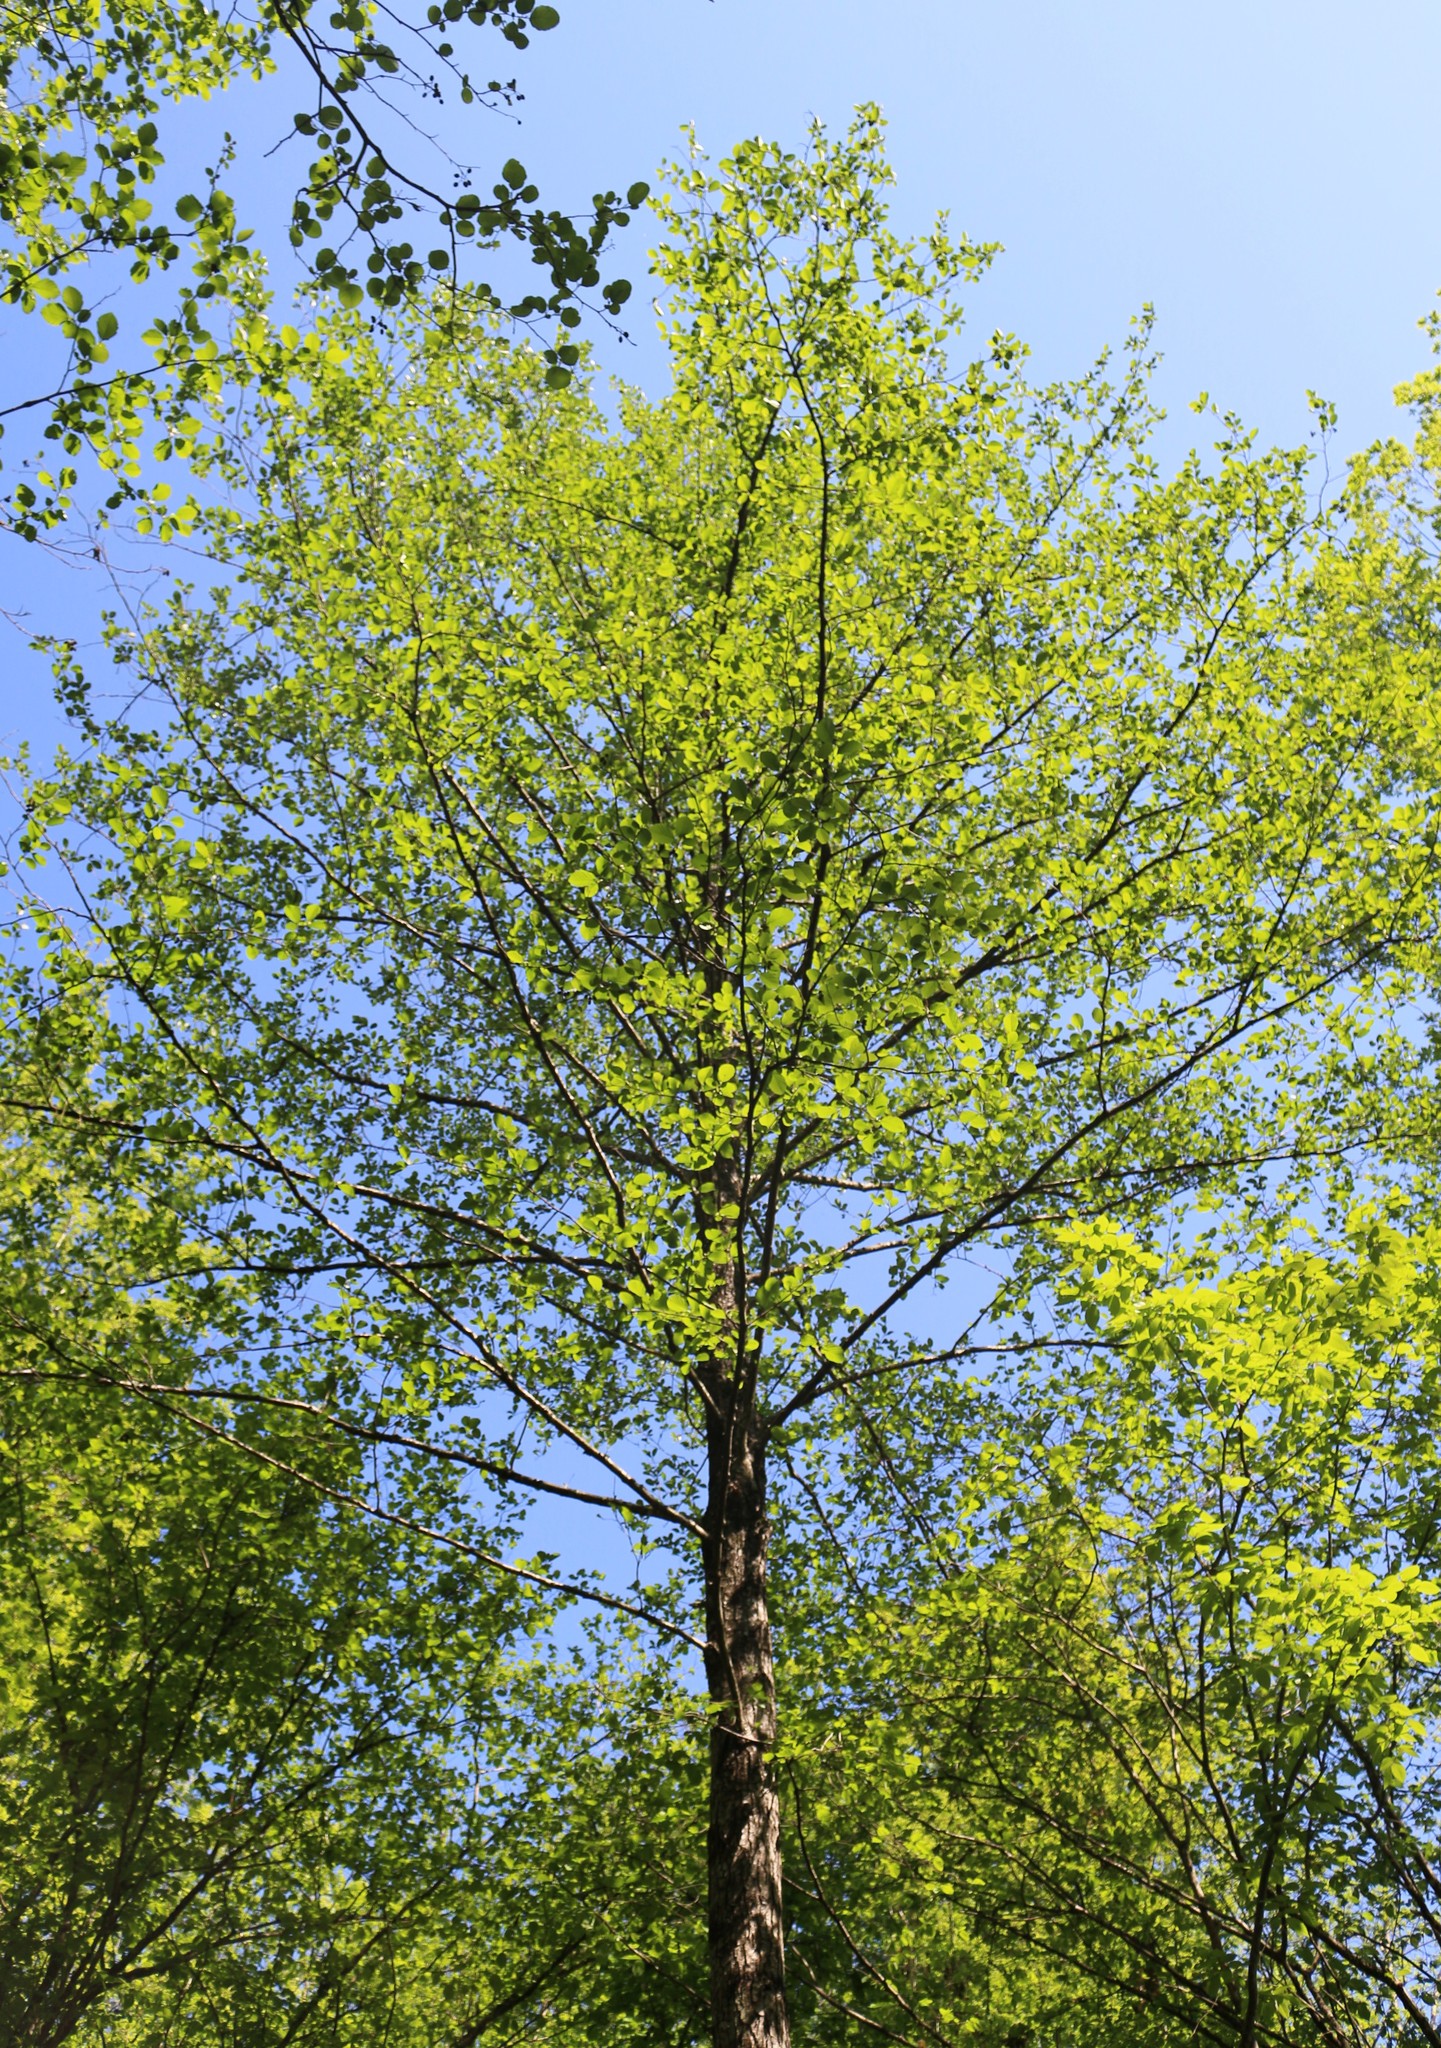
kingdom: Plantae
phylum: Tracheophyta
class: Magnoliopsida
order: Fagales
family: Betulaceae
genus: Alnus
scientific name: Alnus glutinosa
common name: Black alder
